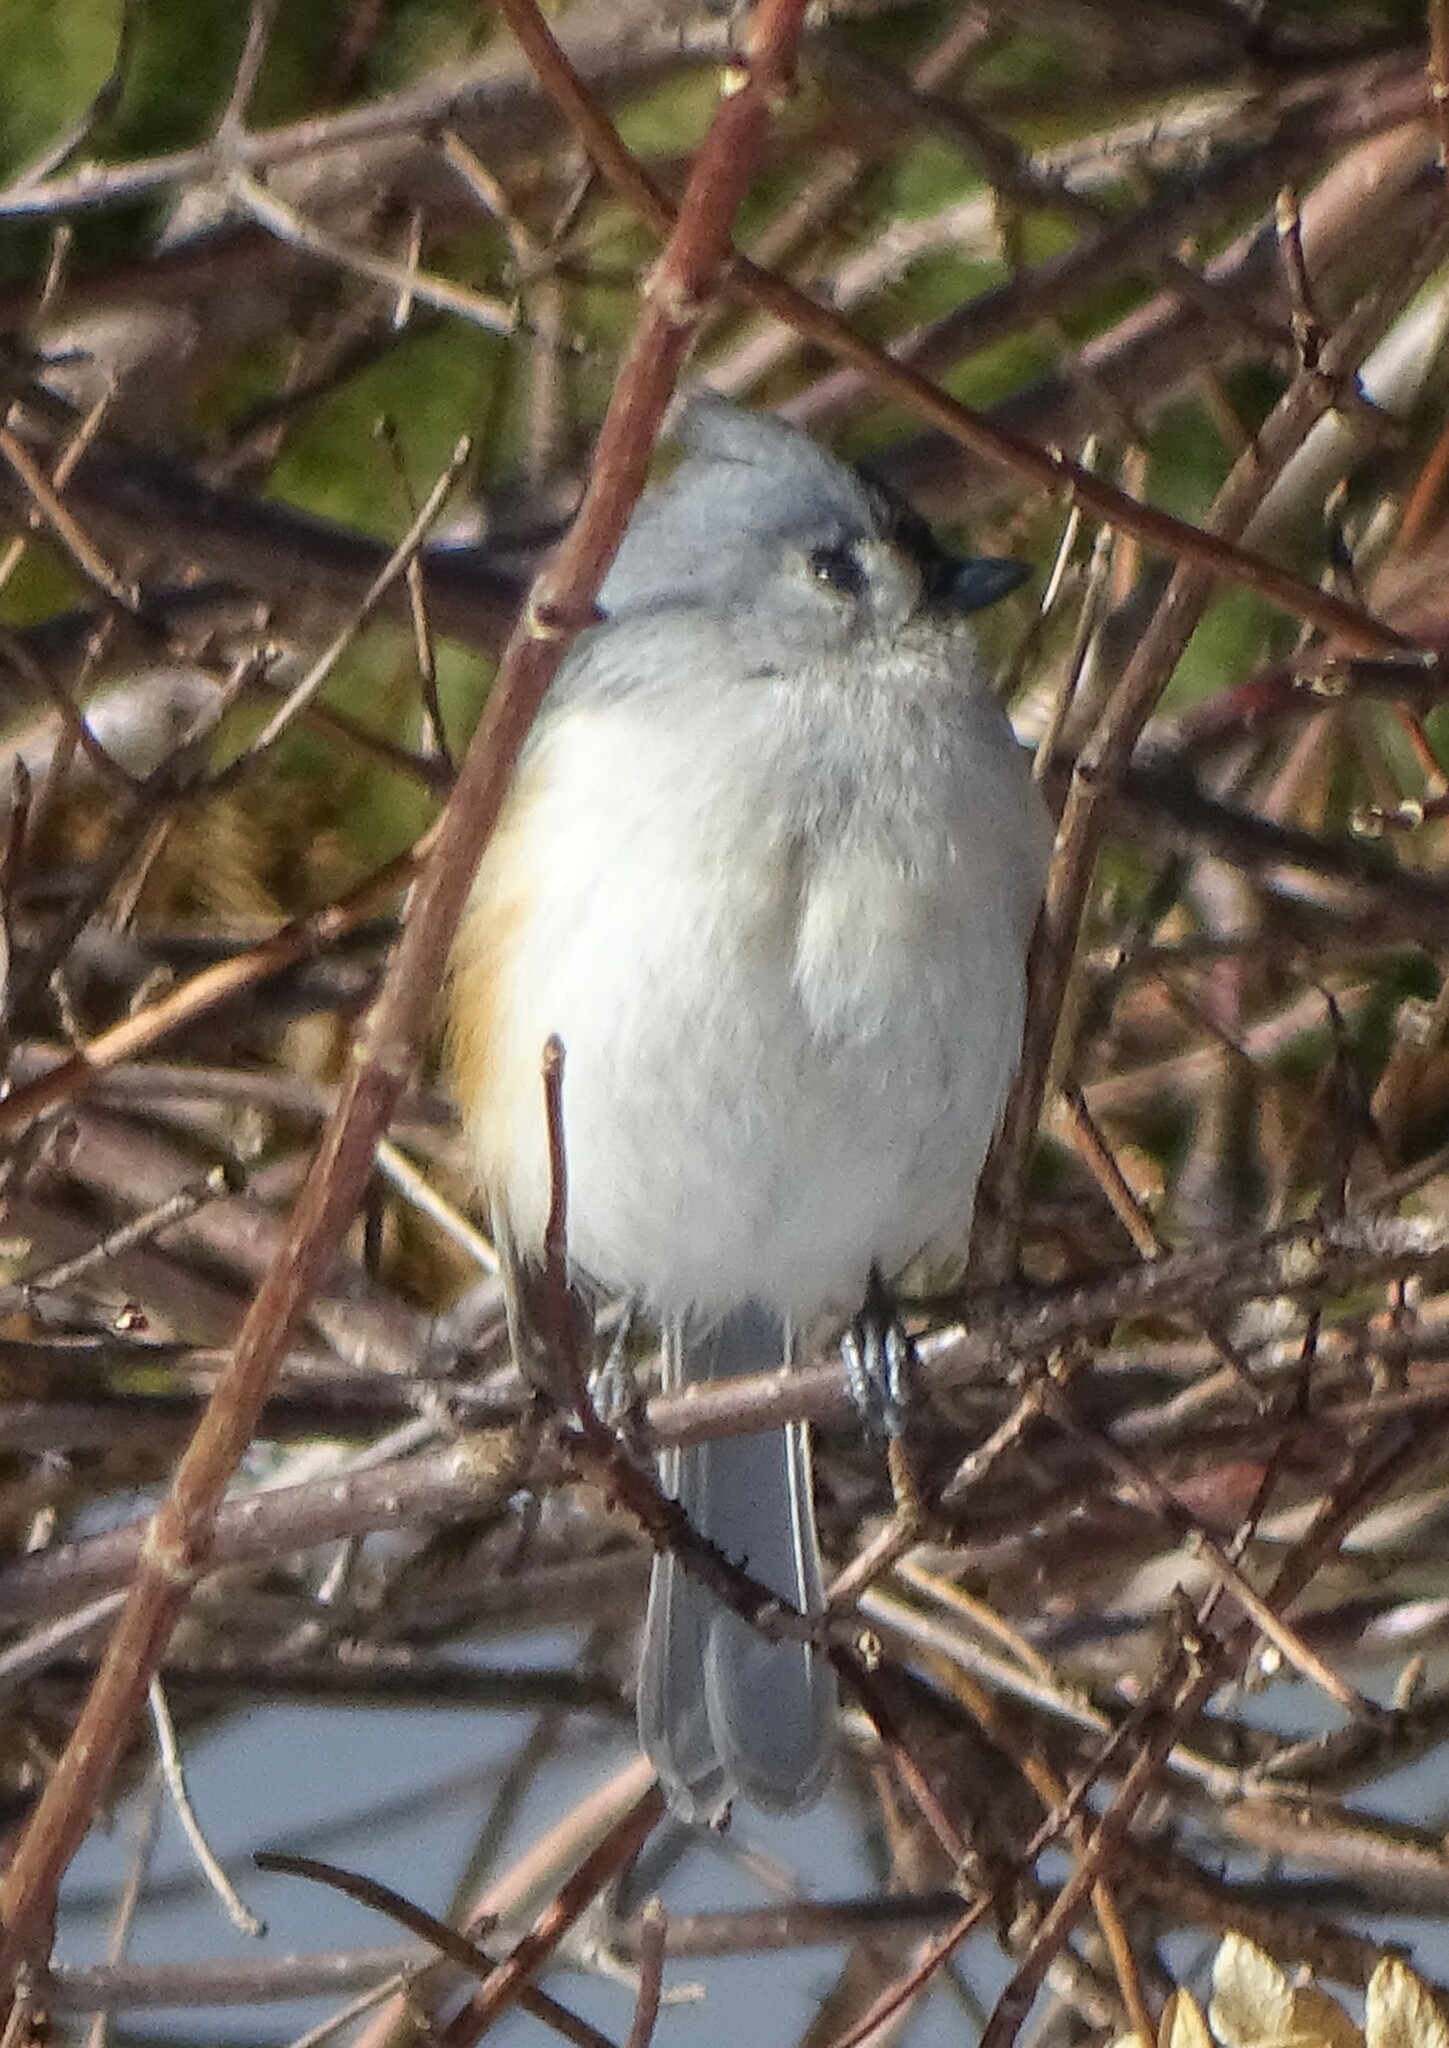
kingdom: Animalia
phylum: Chordata
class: Aves
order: Passeriformes
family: Paridae
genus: Baeolophus
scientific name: Baeolophus bicolor
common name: Tufted titmouse
